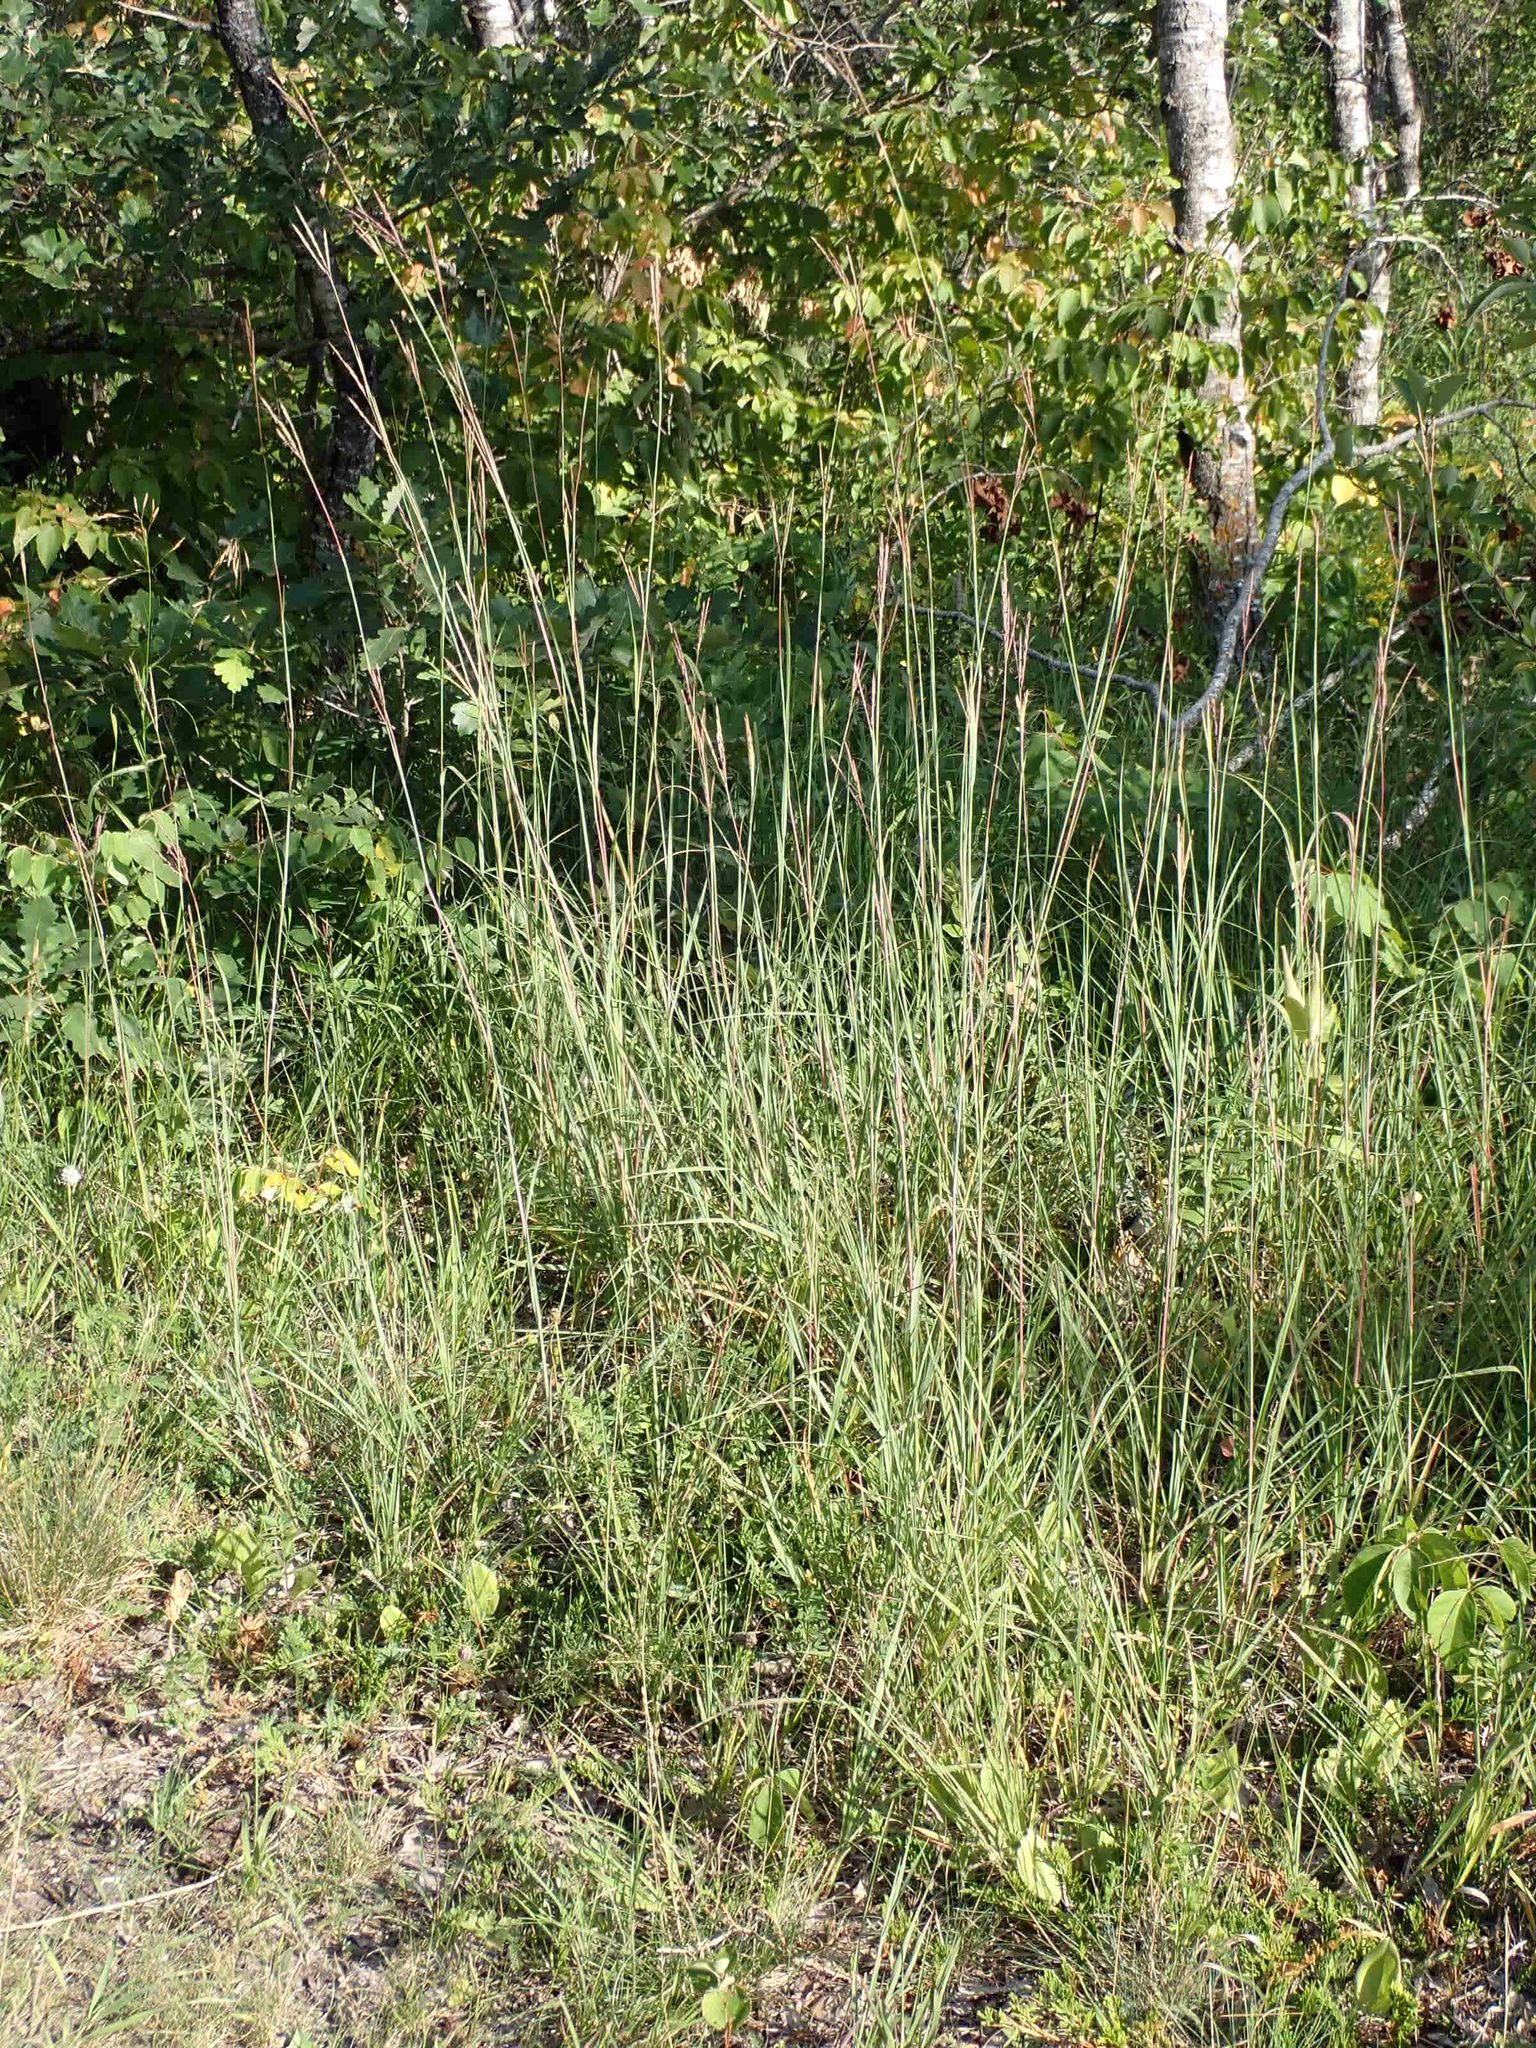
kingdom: Plantae
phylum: Tracheophyta
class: Liliopsida
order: Poales
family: Poaceae
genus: Andropogon
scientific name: Andropogon gerardi
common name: Big bluestem
